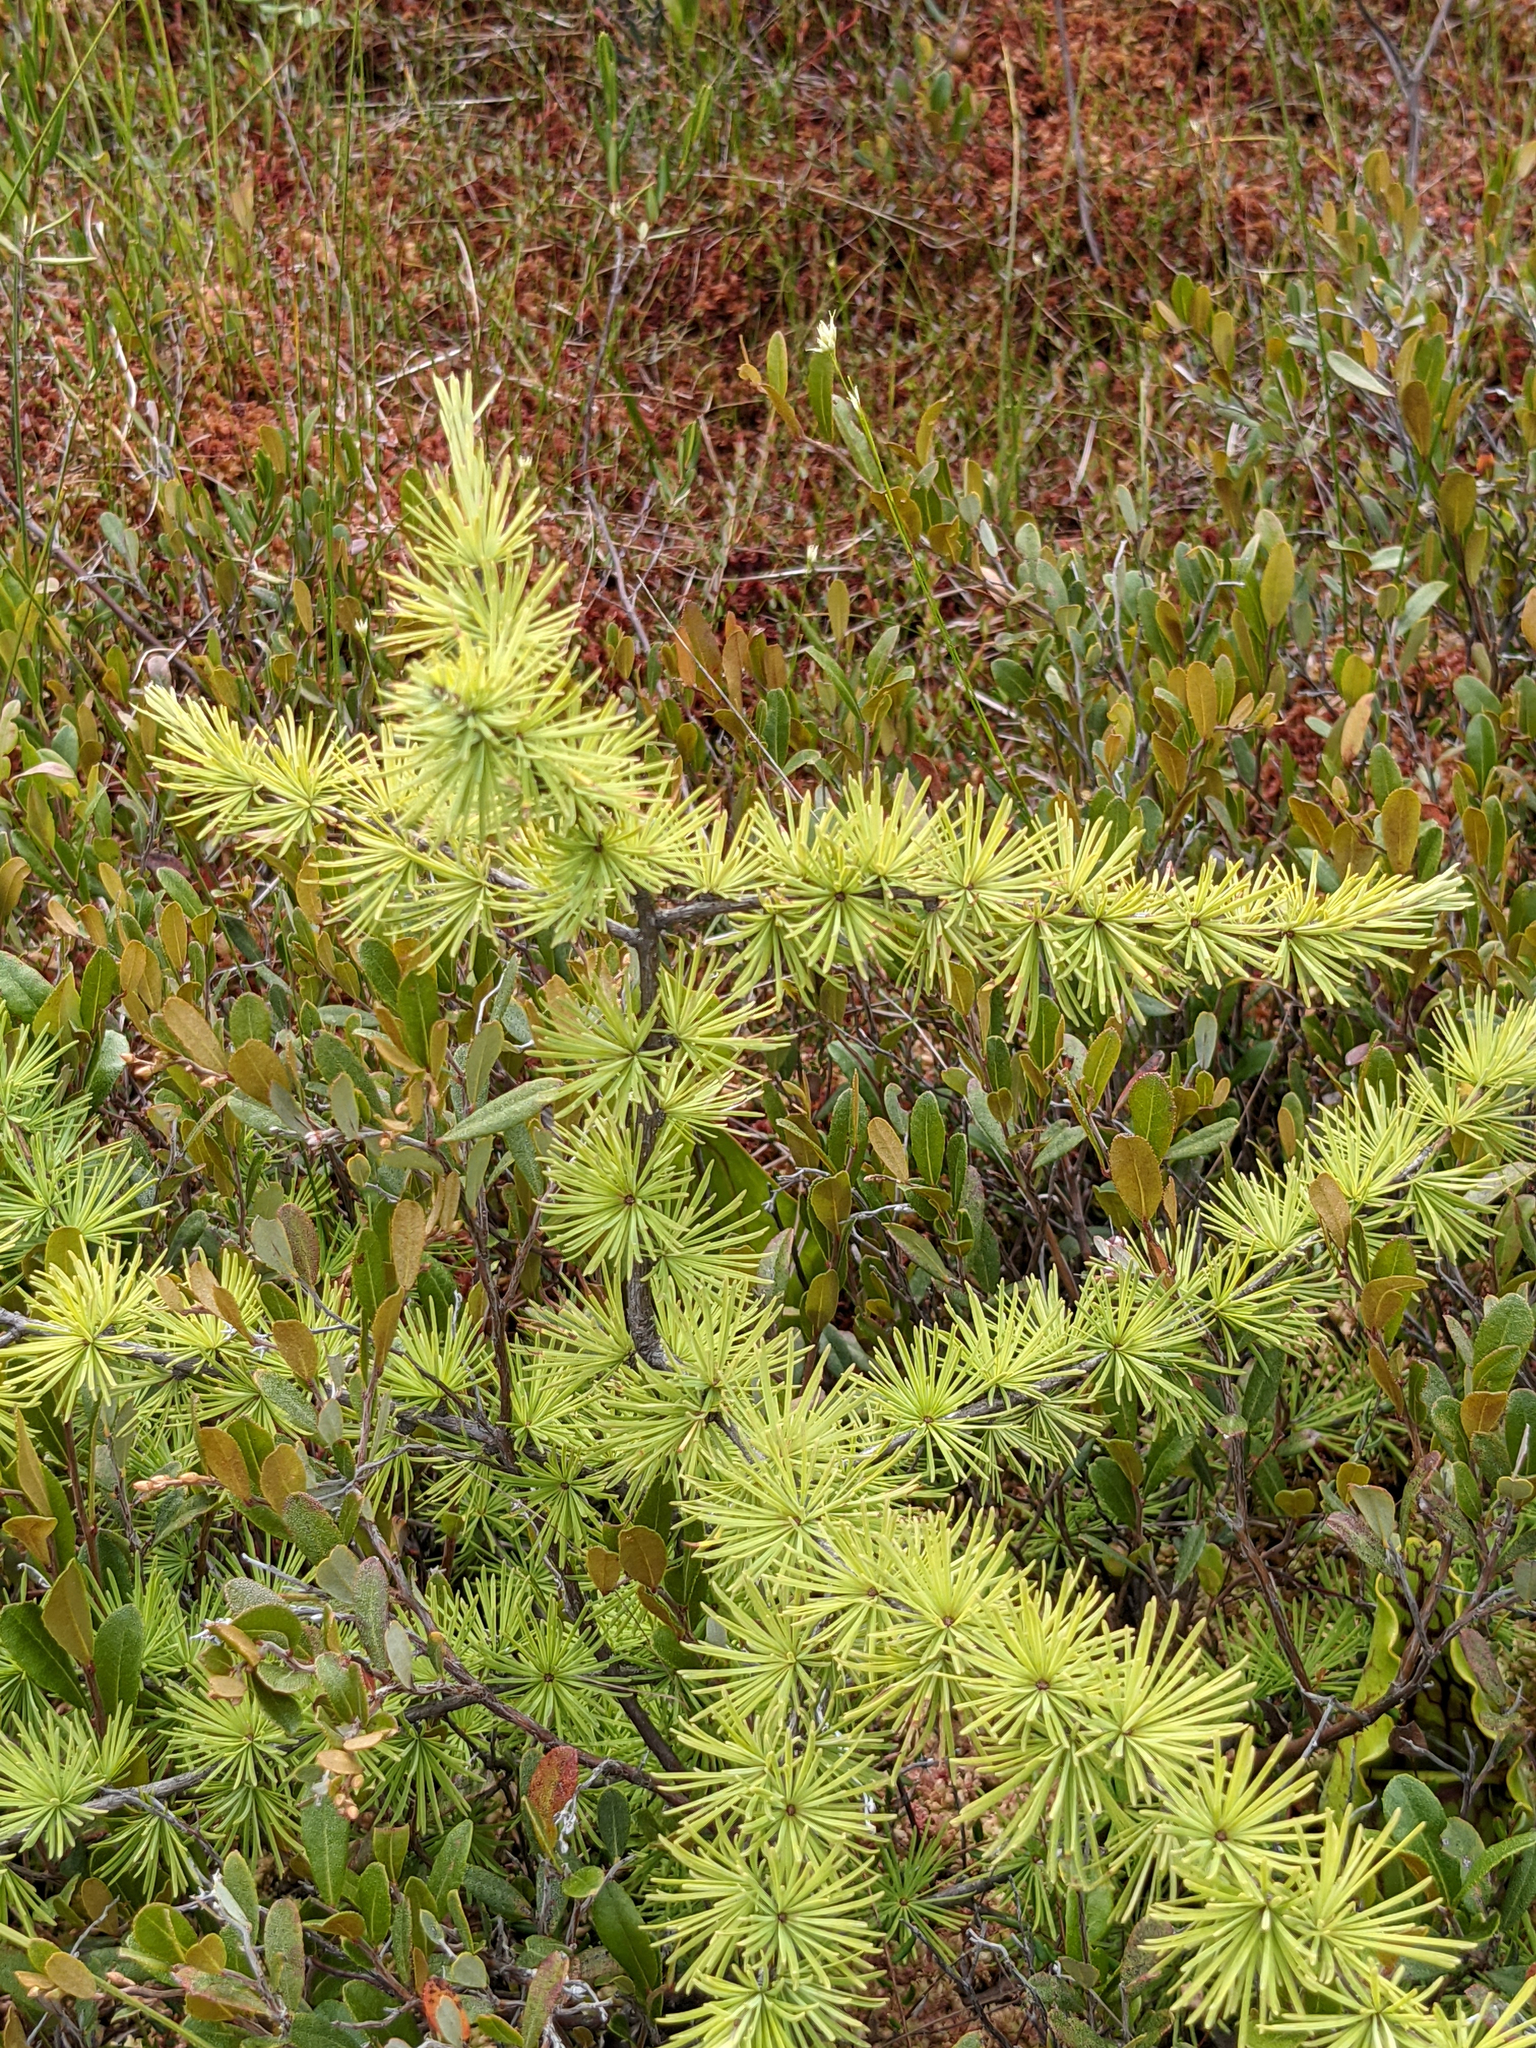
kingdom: Plantae
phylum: Tracheophyta
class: Pinopsida
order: Pinales
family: Pinaceae
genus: Larix
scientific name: Larix laricina
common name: American larch
